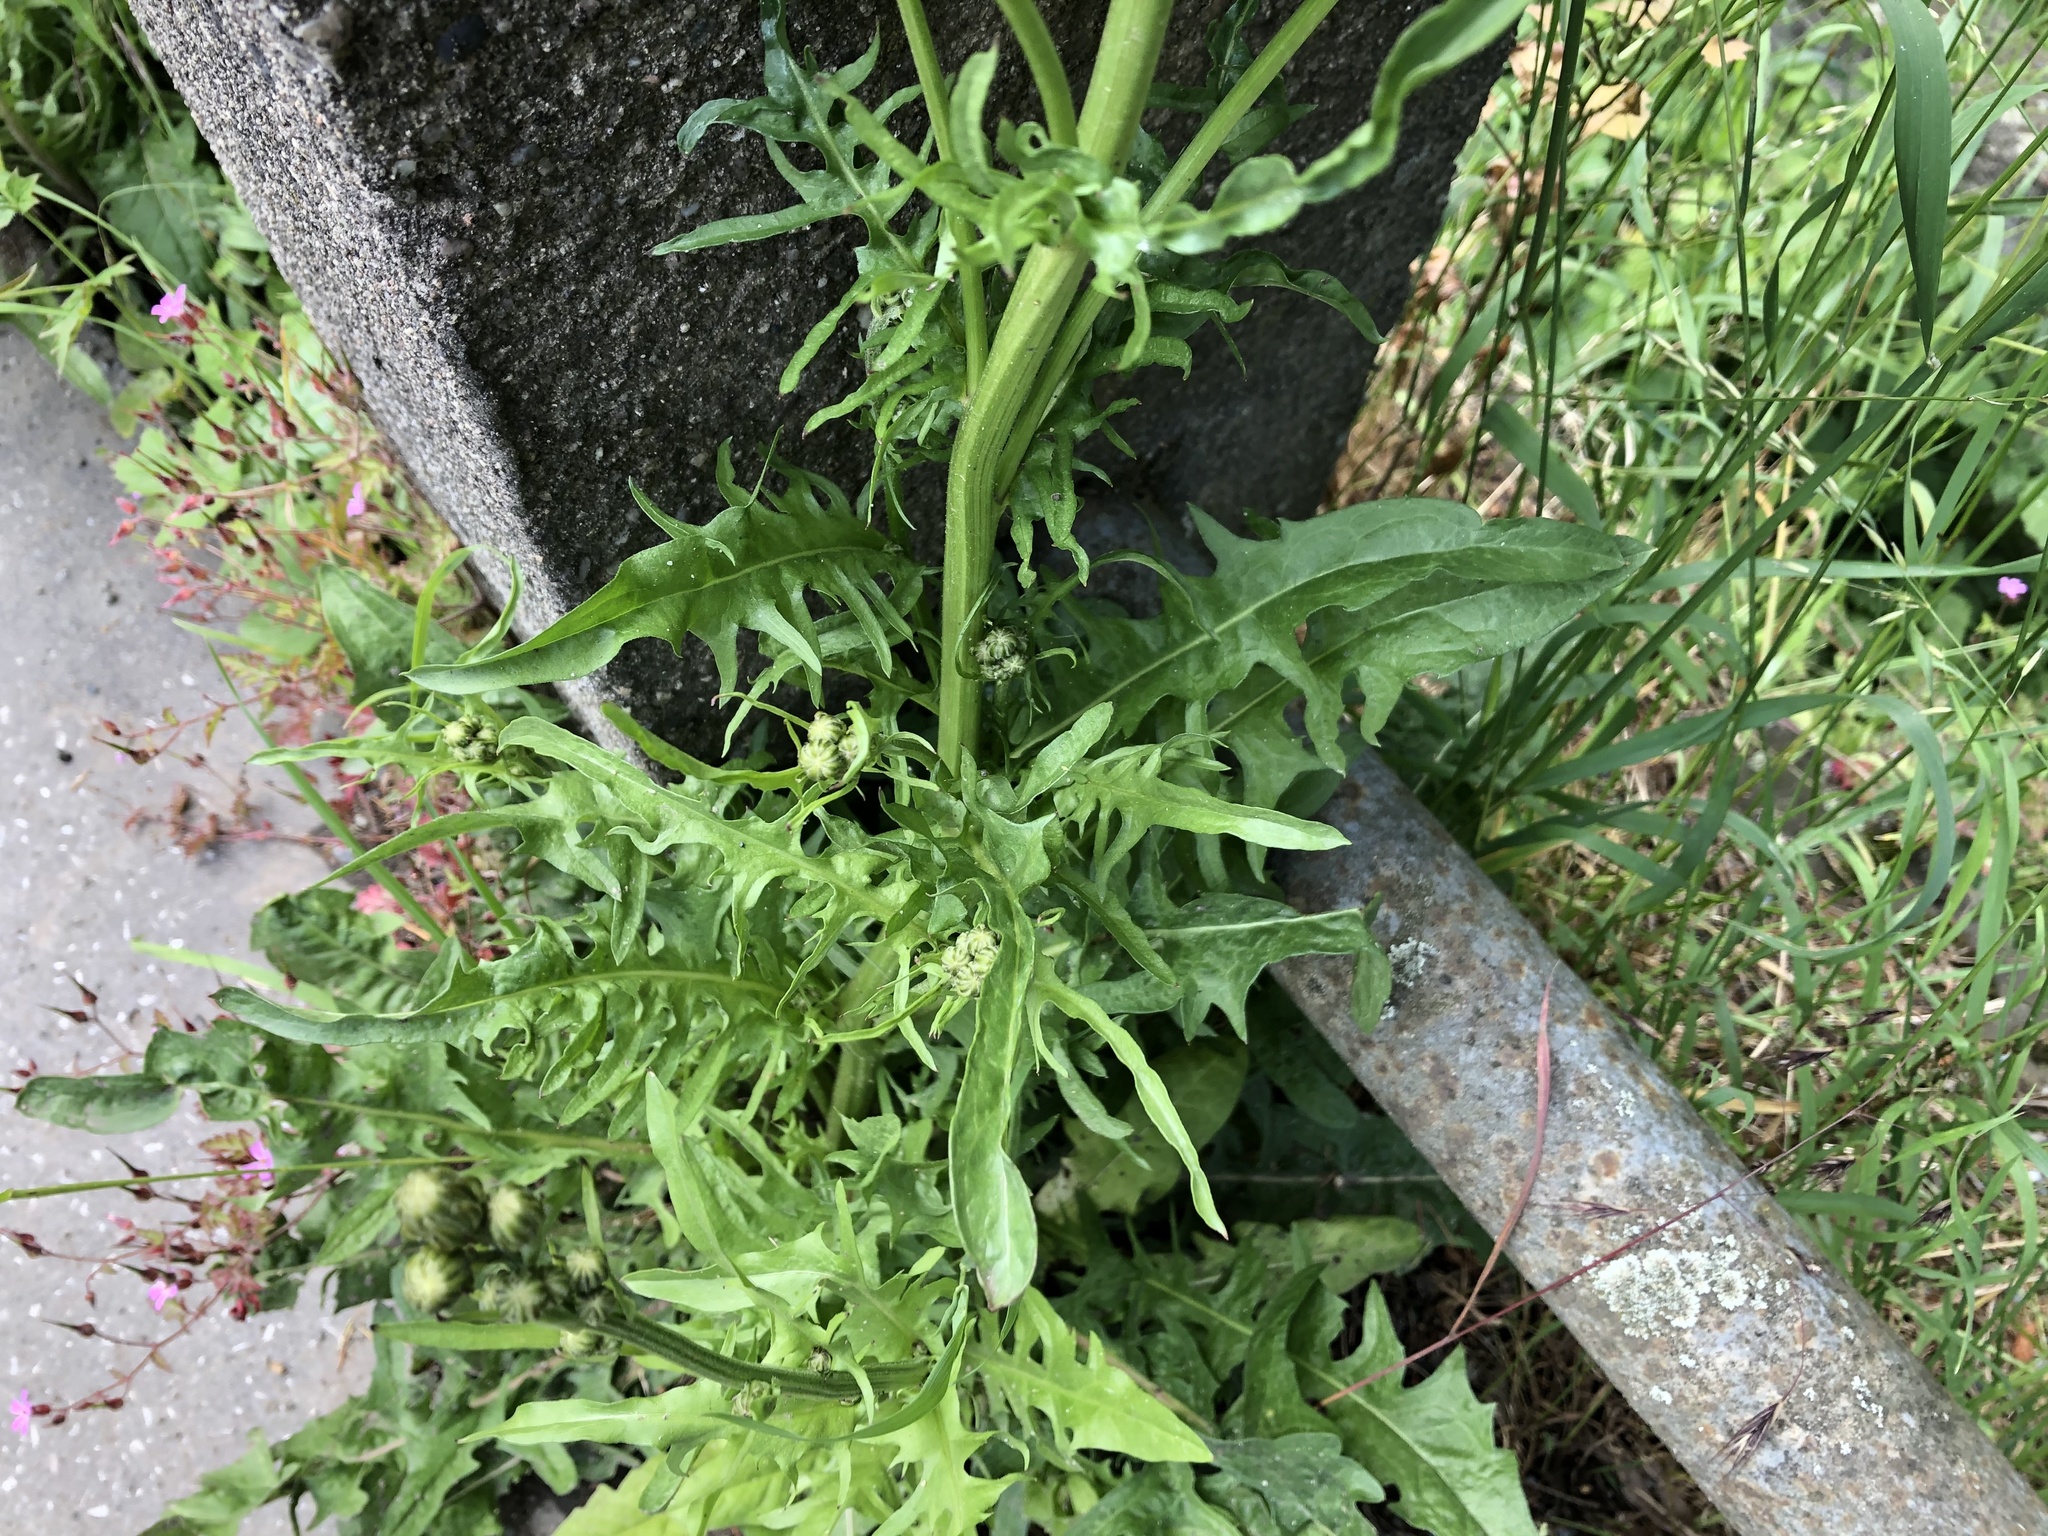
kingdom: Plantae
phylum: Tracheophyta
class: Magnoliopsida
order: Asterales
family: Asteraceae
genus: Crepis
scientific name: Crepis biennis
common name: Rough hawk's-beard
